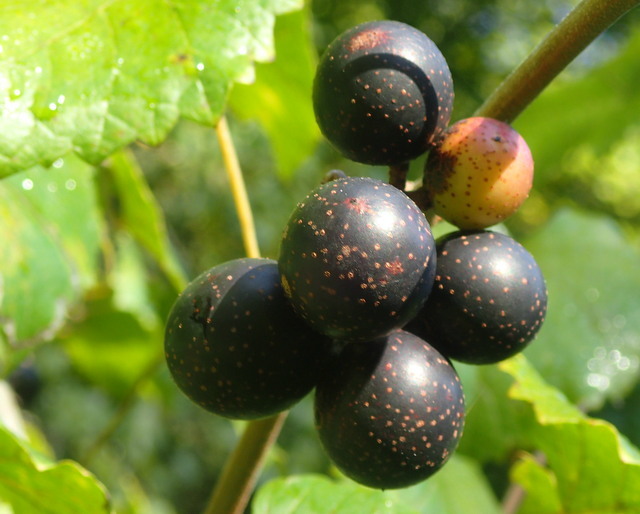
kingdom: Plantae
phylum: Tracheophyta
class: Magnoliopsida
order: Vitales
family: Vitaceae
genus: Vitis
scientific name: Vitis rotundifolia
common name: Muscadine grape
